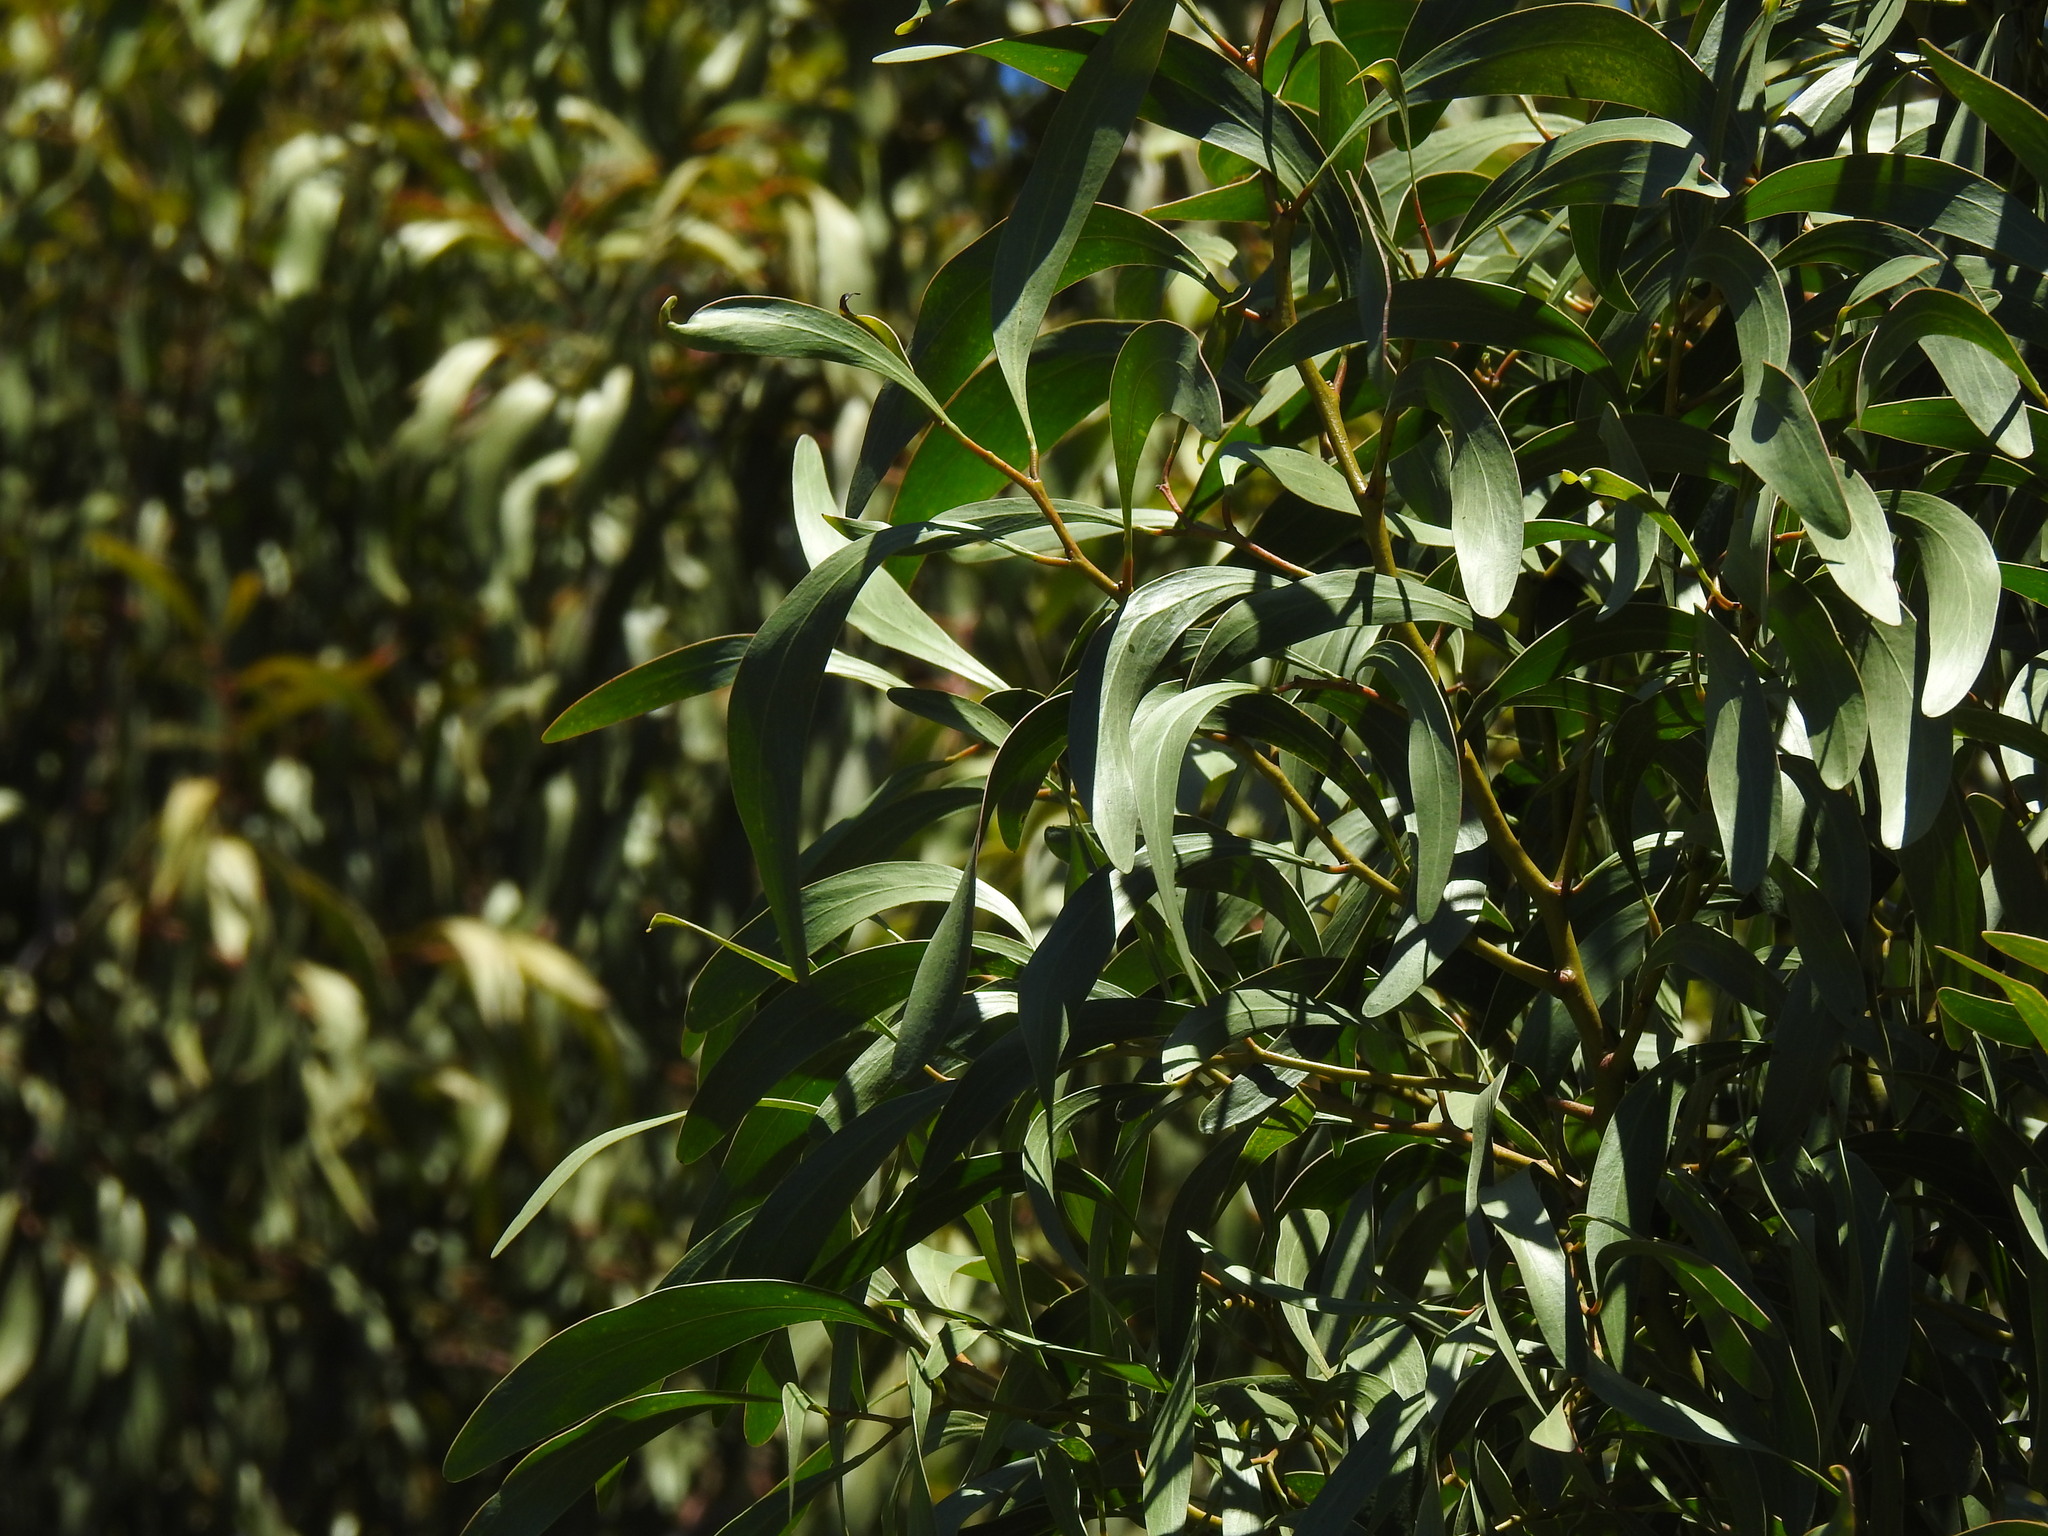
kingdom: Plantae
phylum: Tracheophyta
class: Magnoliopsida
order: Fabales
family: Fabaceae
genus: Acacia
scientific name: Acacia pycnantha
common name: Golden wattle
